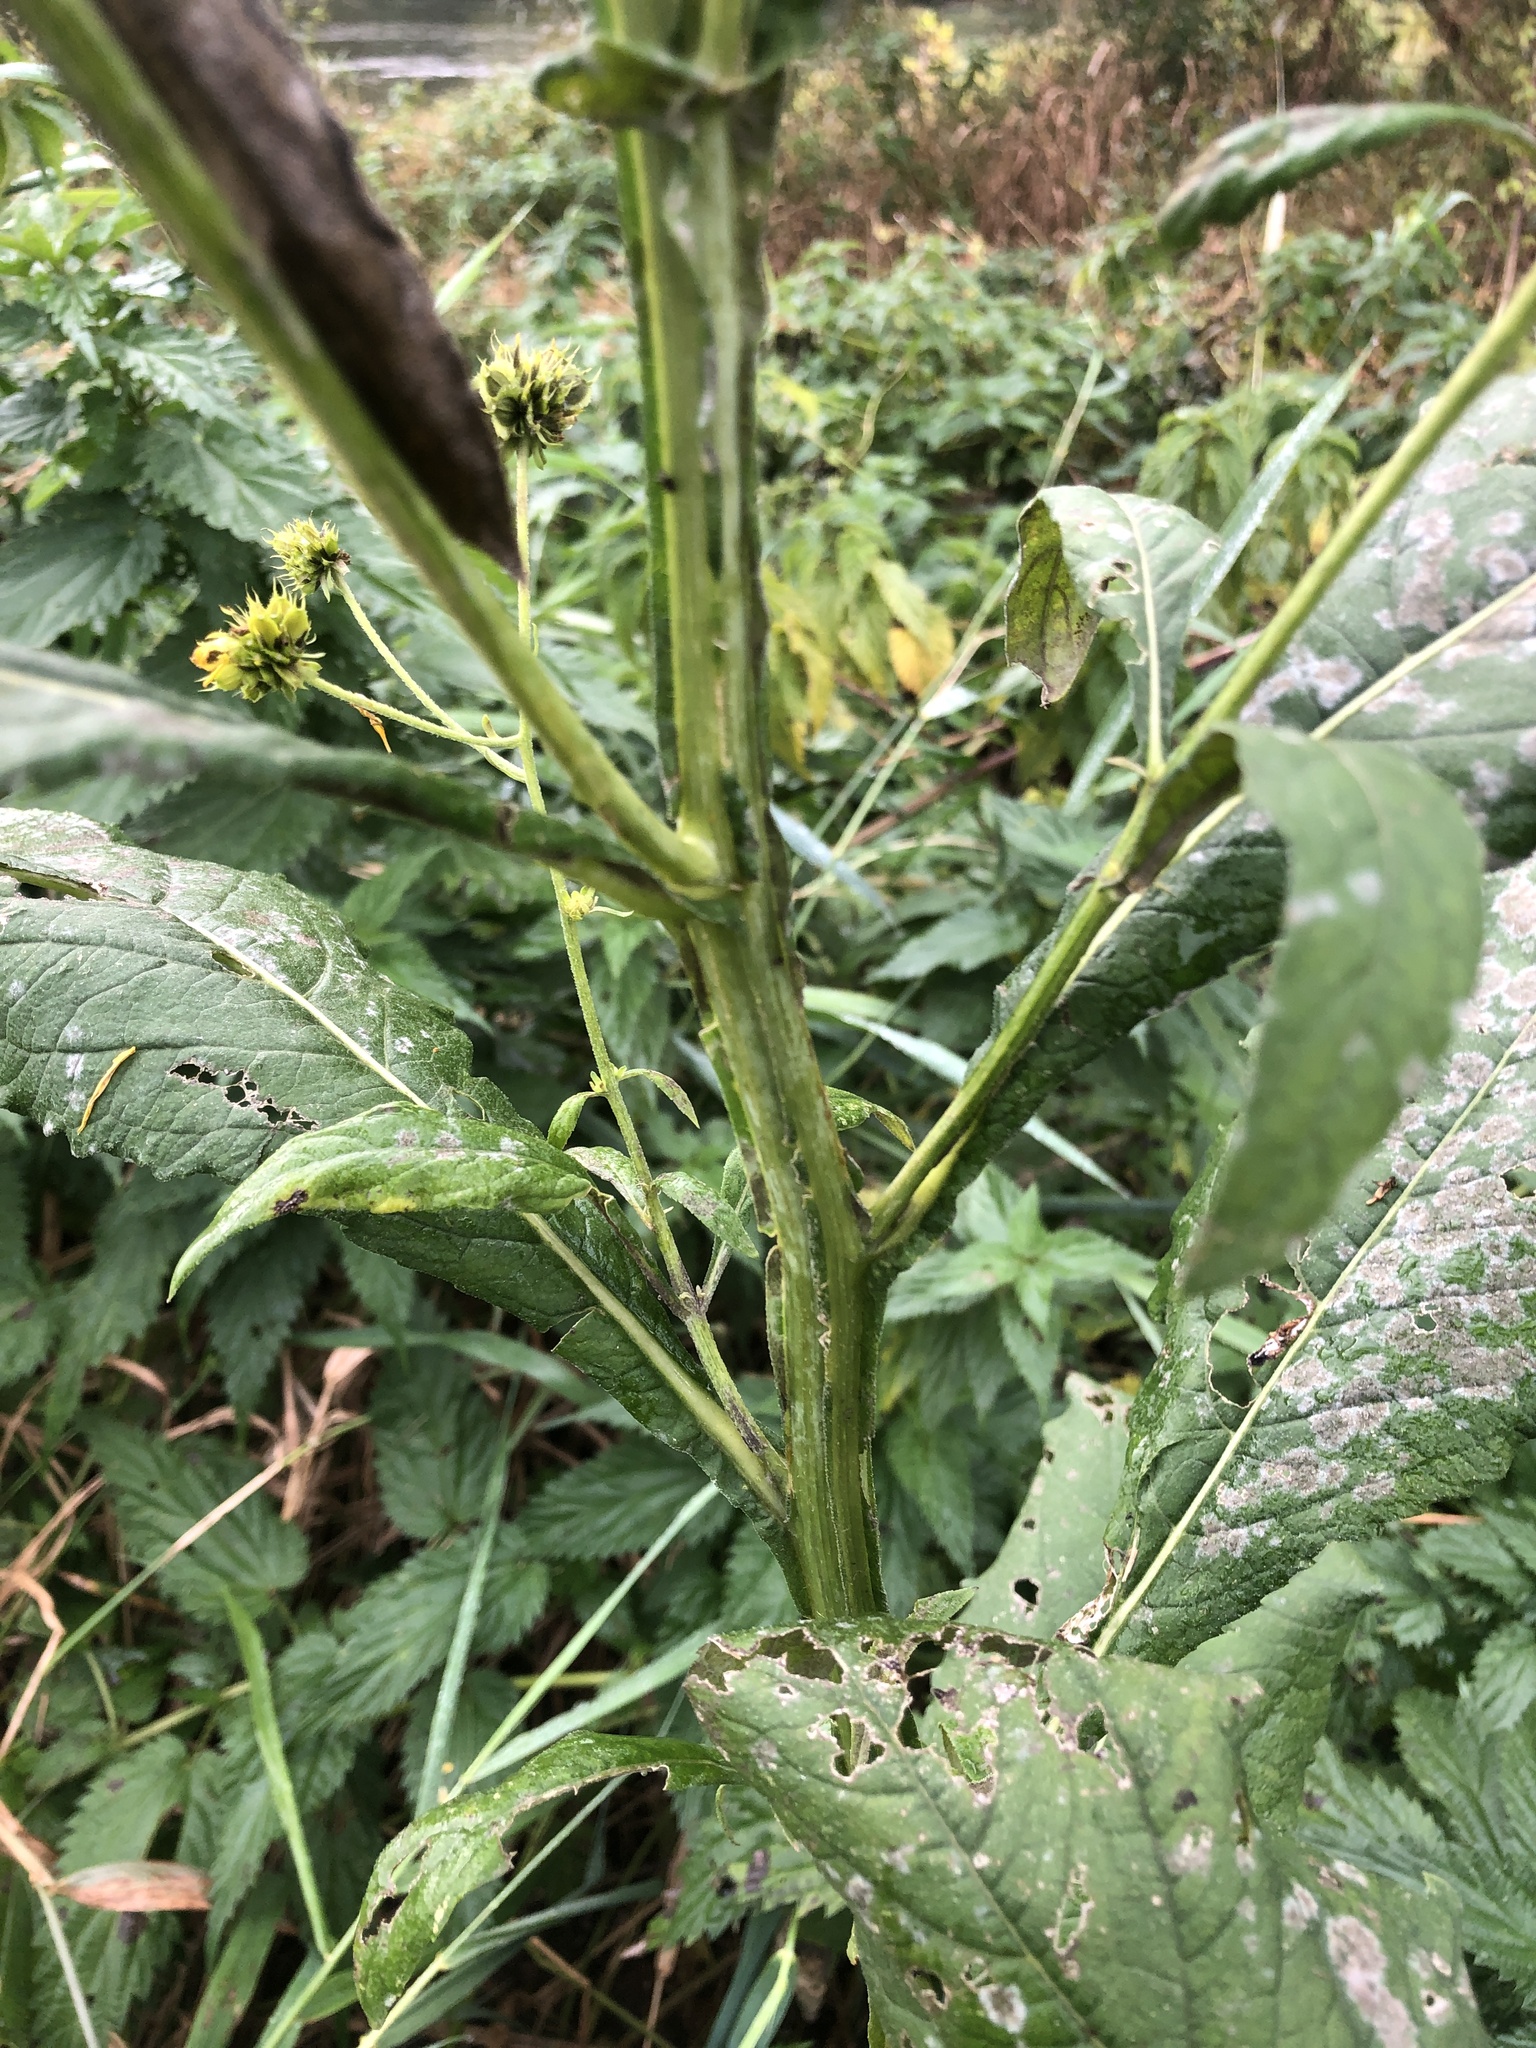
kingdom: Plantae
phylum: Tracheophyta
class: Magnoliopsida
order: Asterales
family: Asteraceae
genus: Verbesina
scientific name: Verbesina alternifolia
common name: Wingstem
